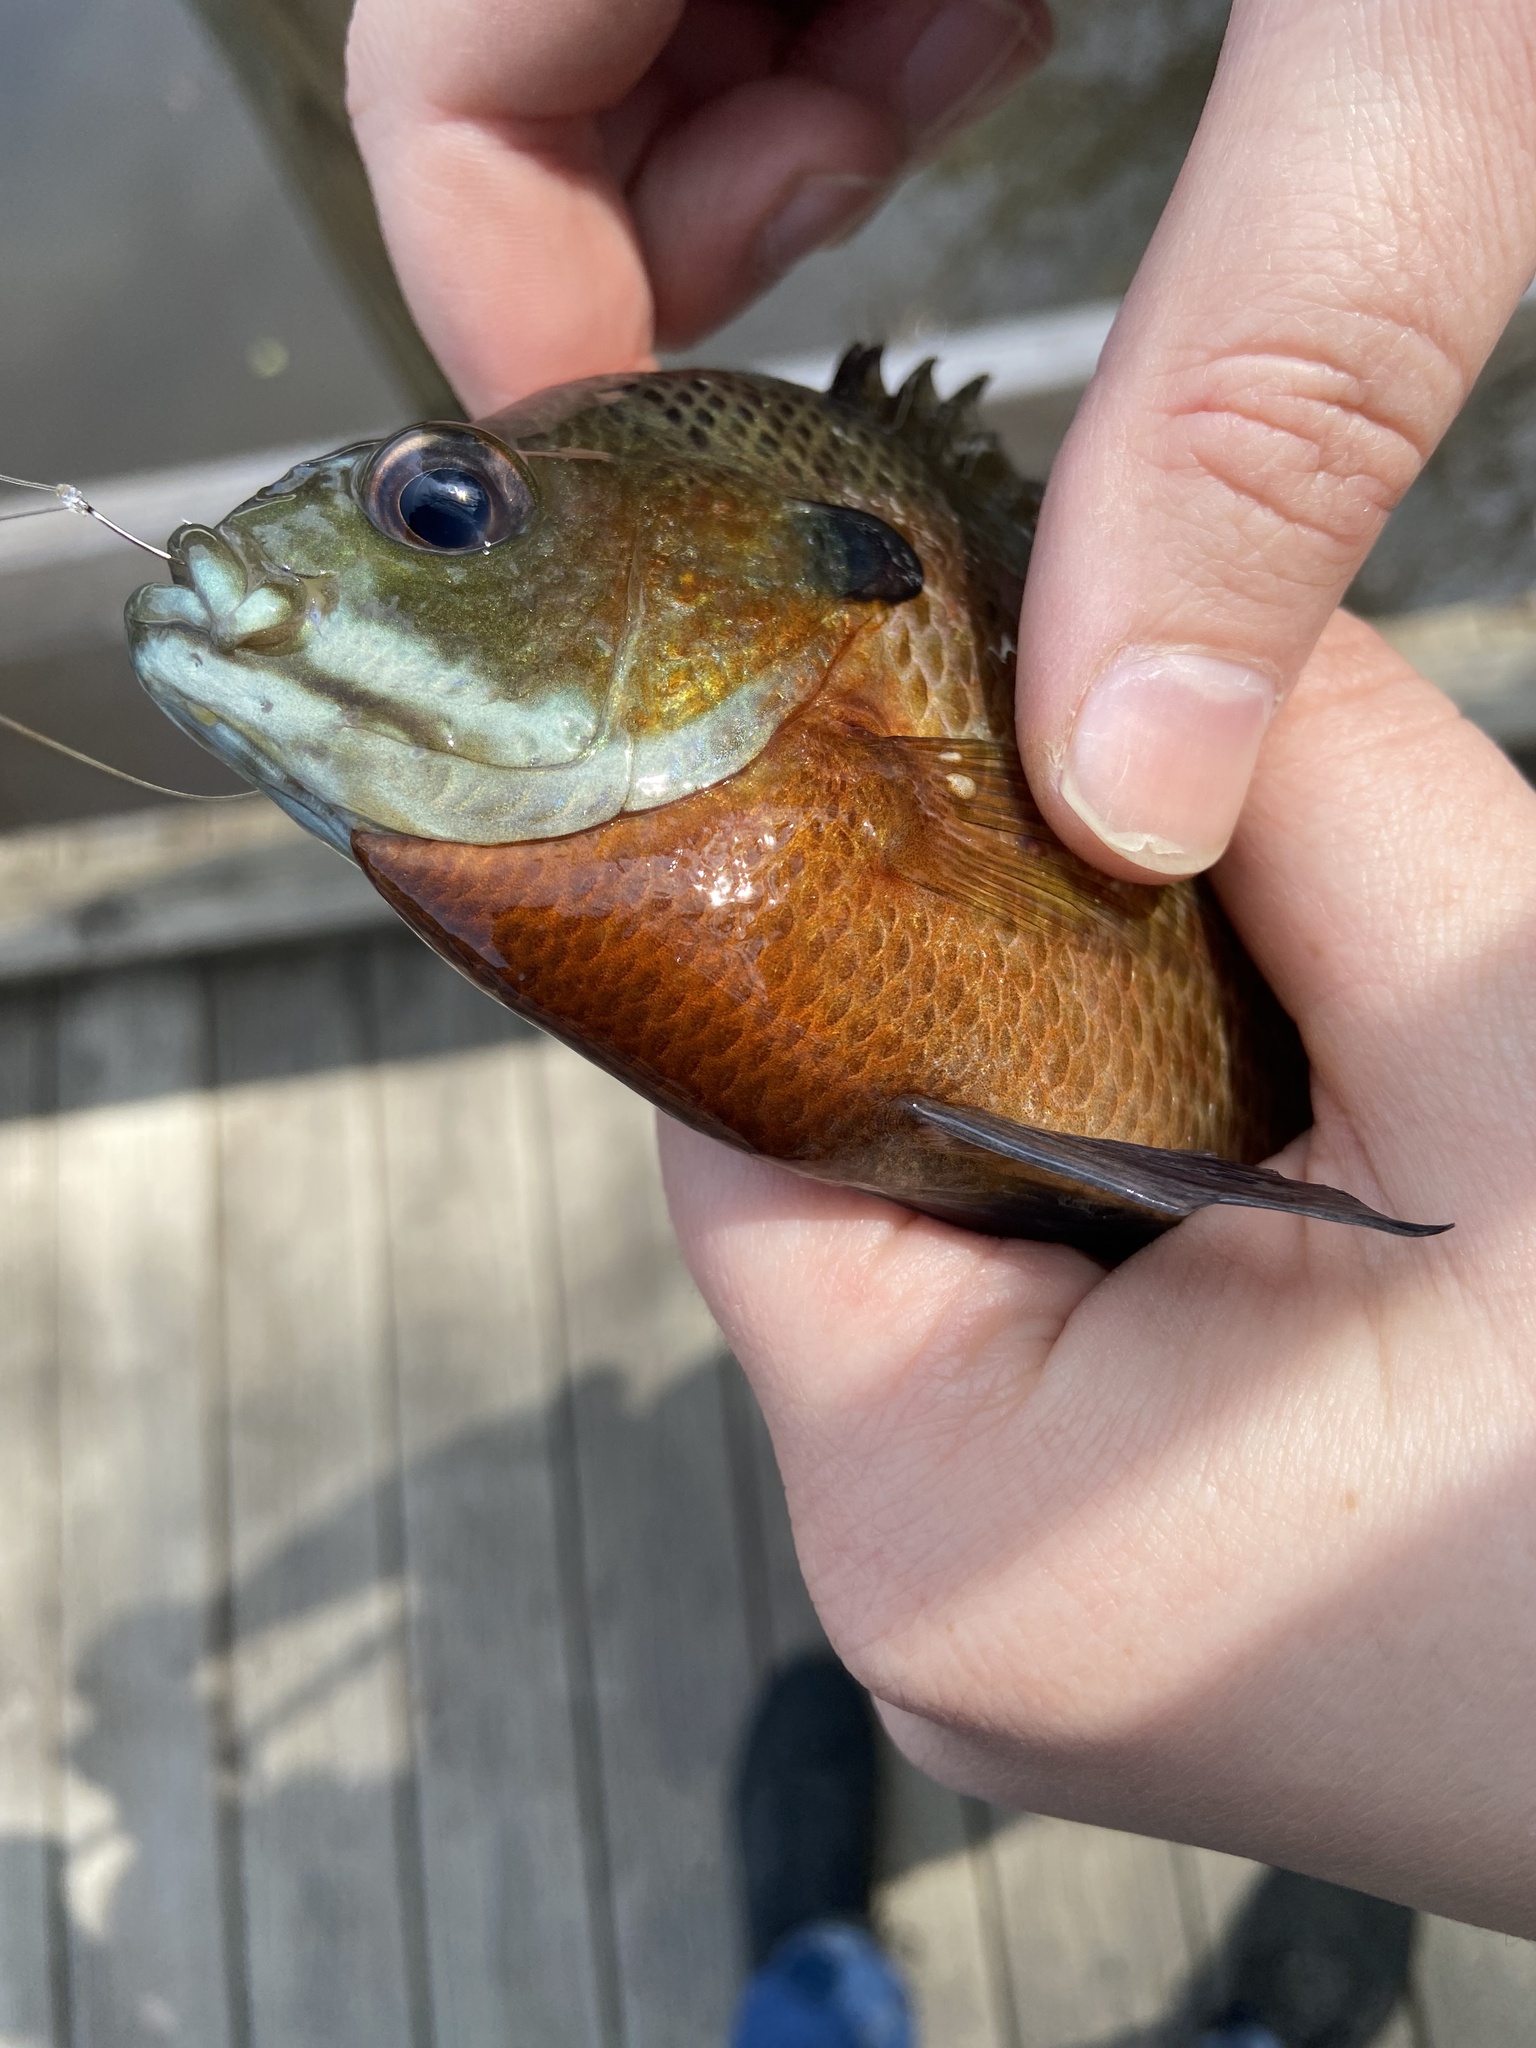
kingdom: Animalia
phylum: Chordata
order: Perciformes
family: Centrarchidae
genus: Lepomis
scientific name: Lepomis macrochirus
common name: Bluegill
